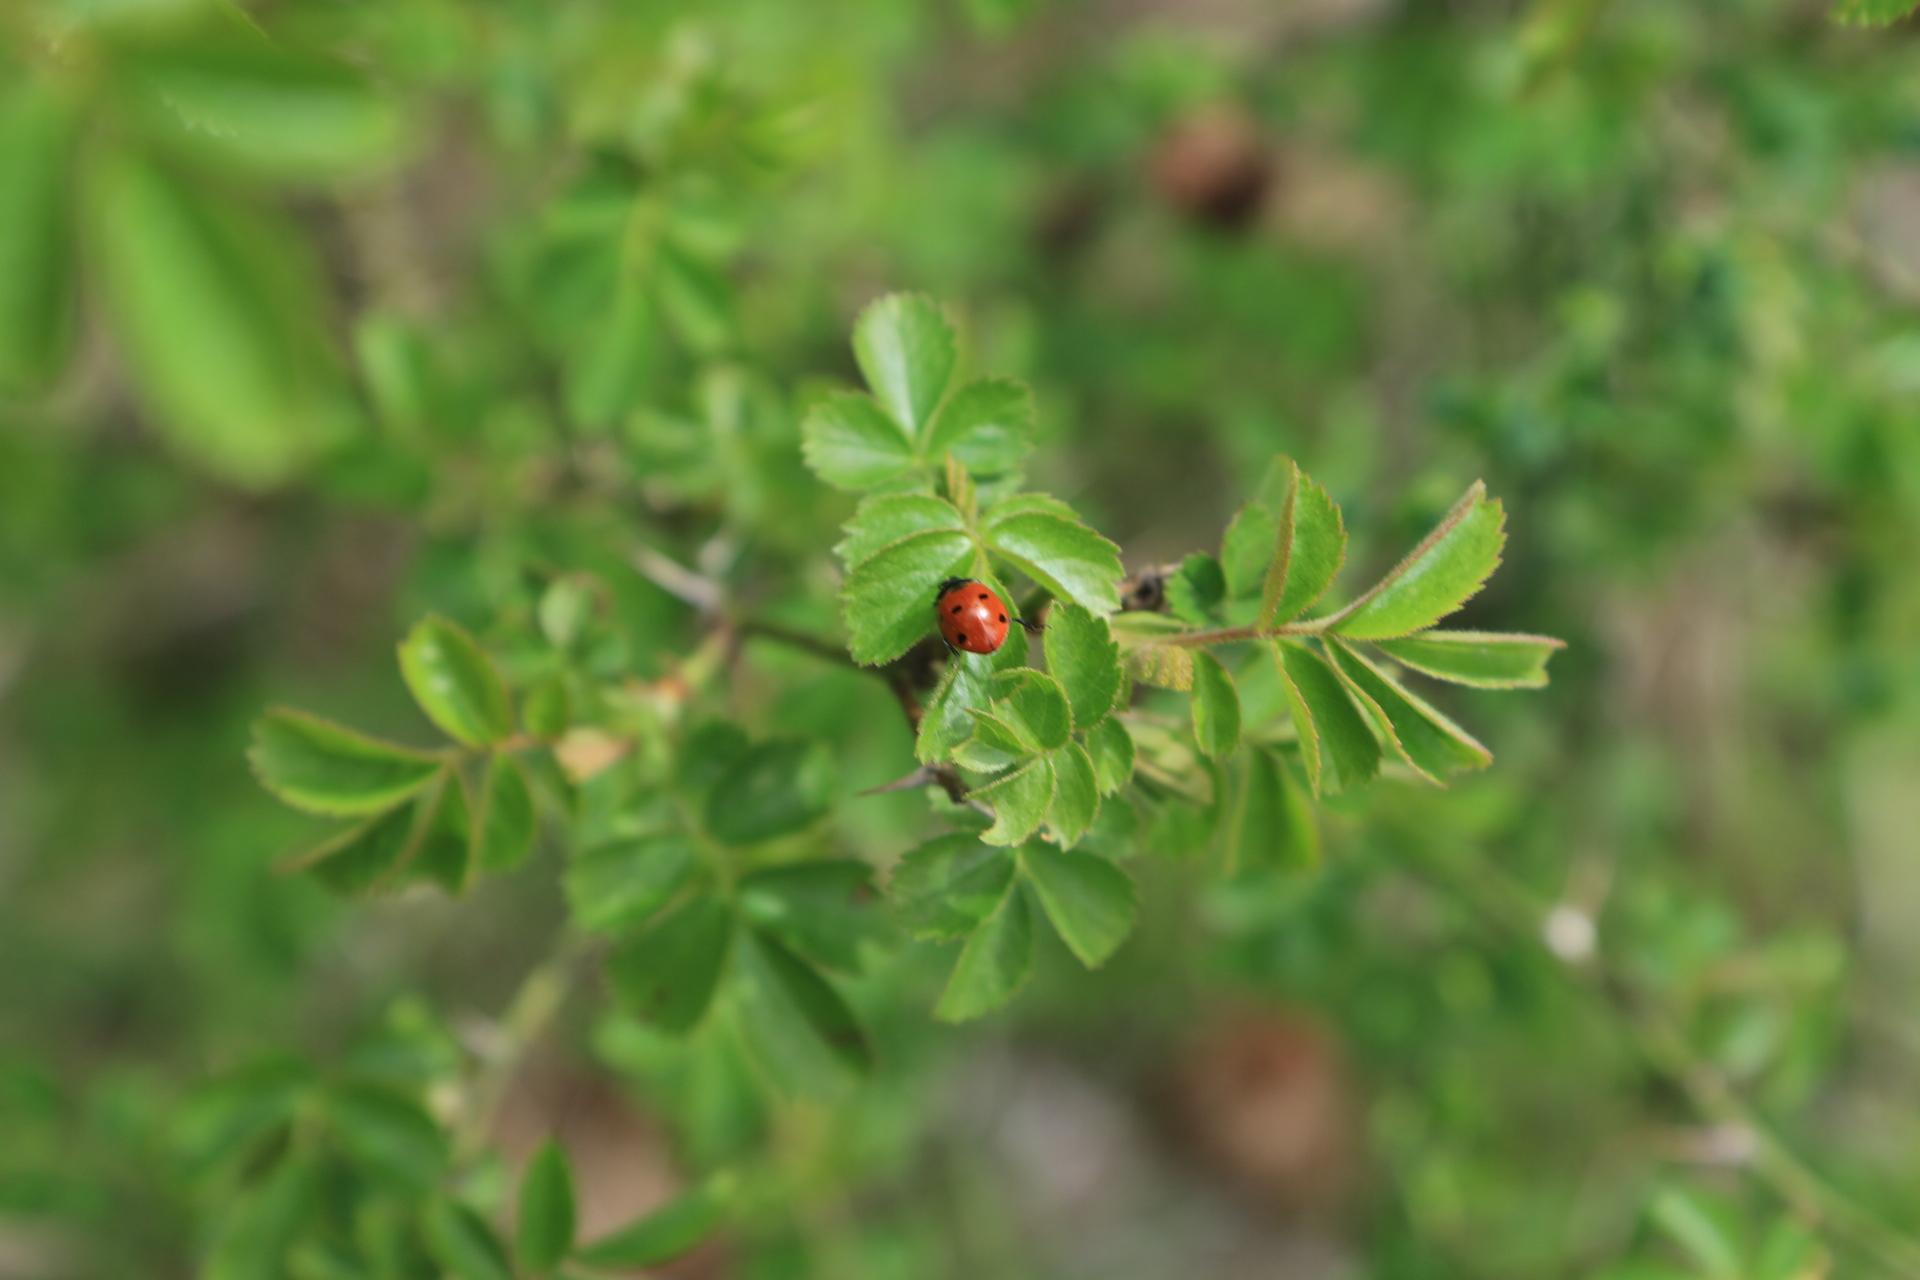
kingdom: Animalia
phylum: Arthropoda
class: Insecta
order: Coleoptera
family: Coccinellidae
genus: Coccinella
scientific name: Coccinella septempunctata
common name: Sevenspotted lady beetle
